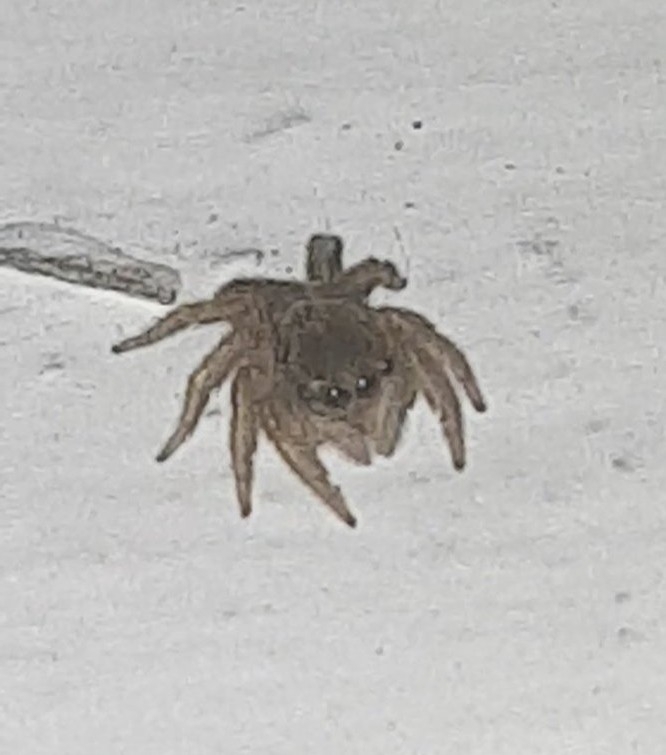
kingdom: Animalia
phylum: Arthropoda
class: Arachnida
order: Araneae
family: Salticidae
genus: Hasarius
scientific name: Hasarius adansoni
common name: Jumping spider
